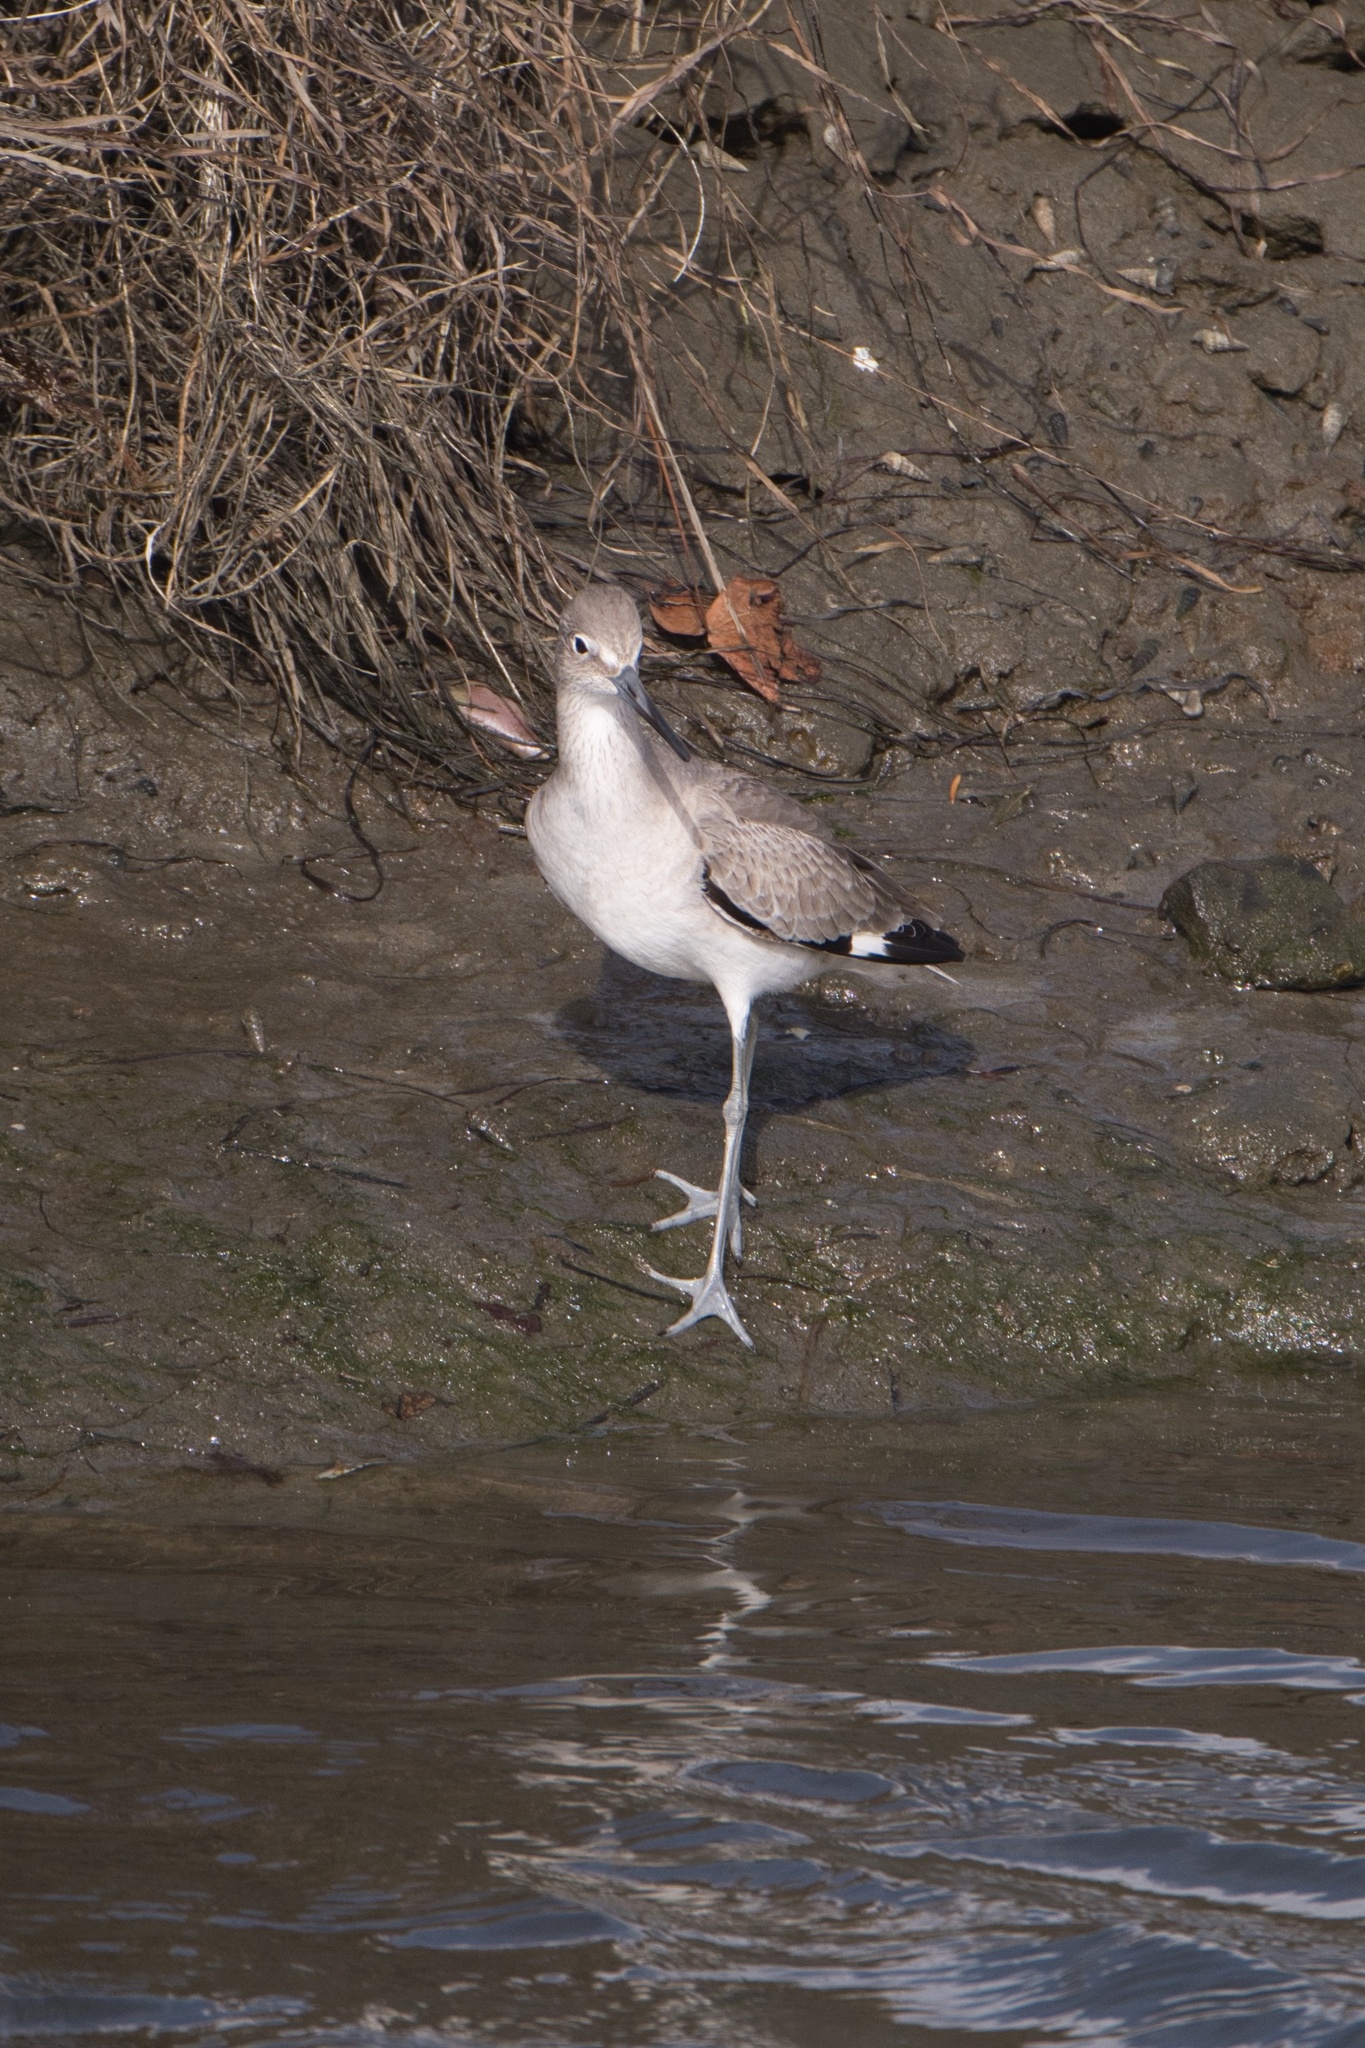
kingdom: Animalia
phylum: Chordata
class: Aves
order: Charadriiformes
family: Scolopacidae
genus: Tringa
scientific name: Tringa semipalmata
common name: Willet
